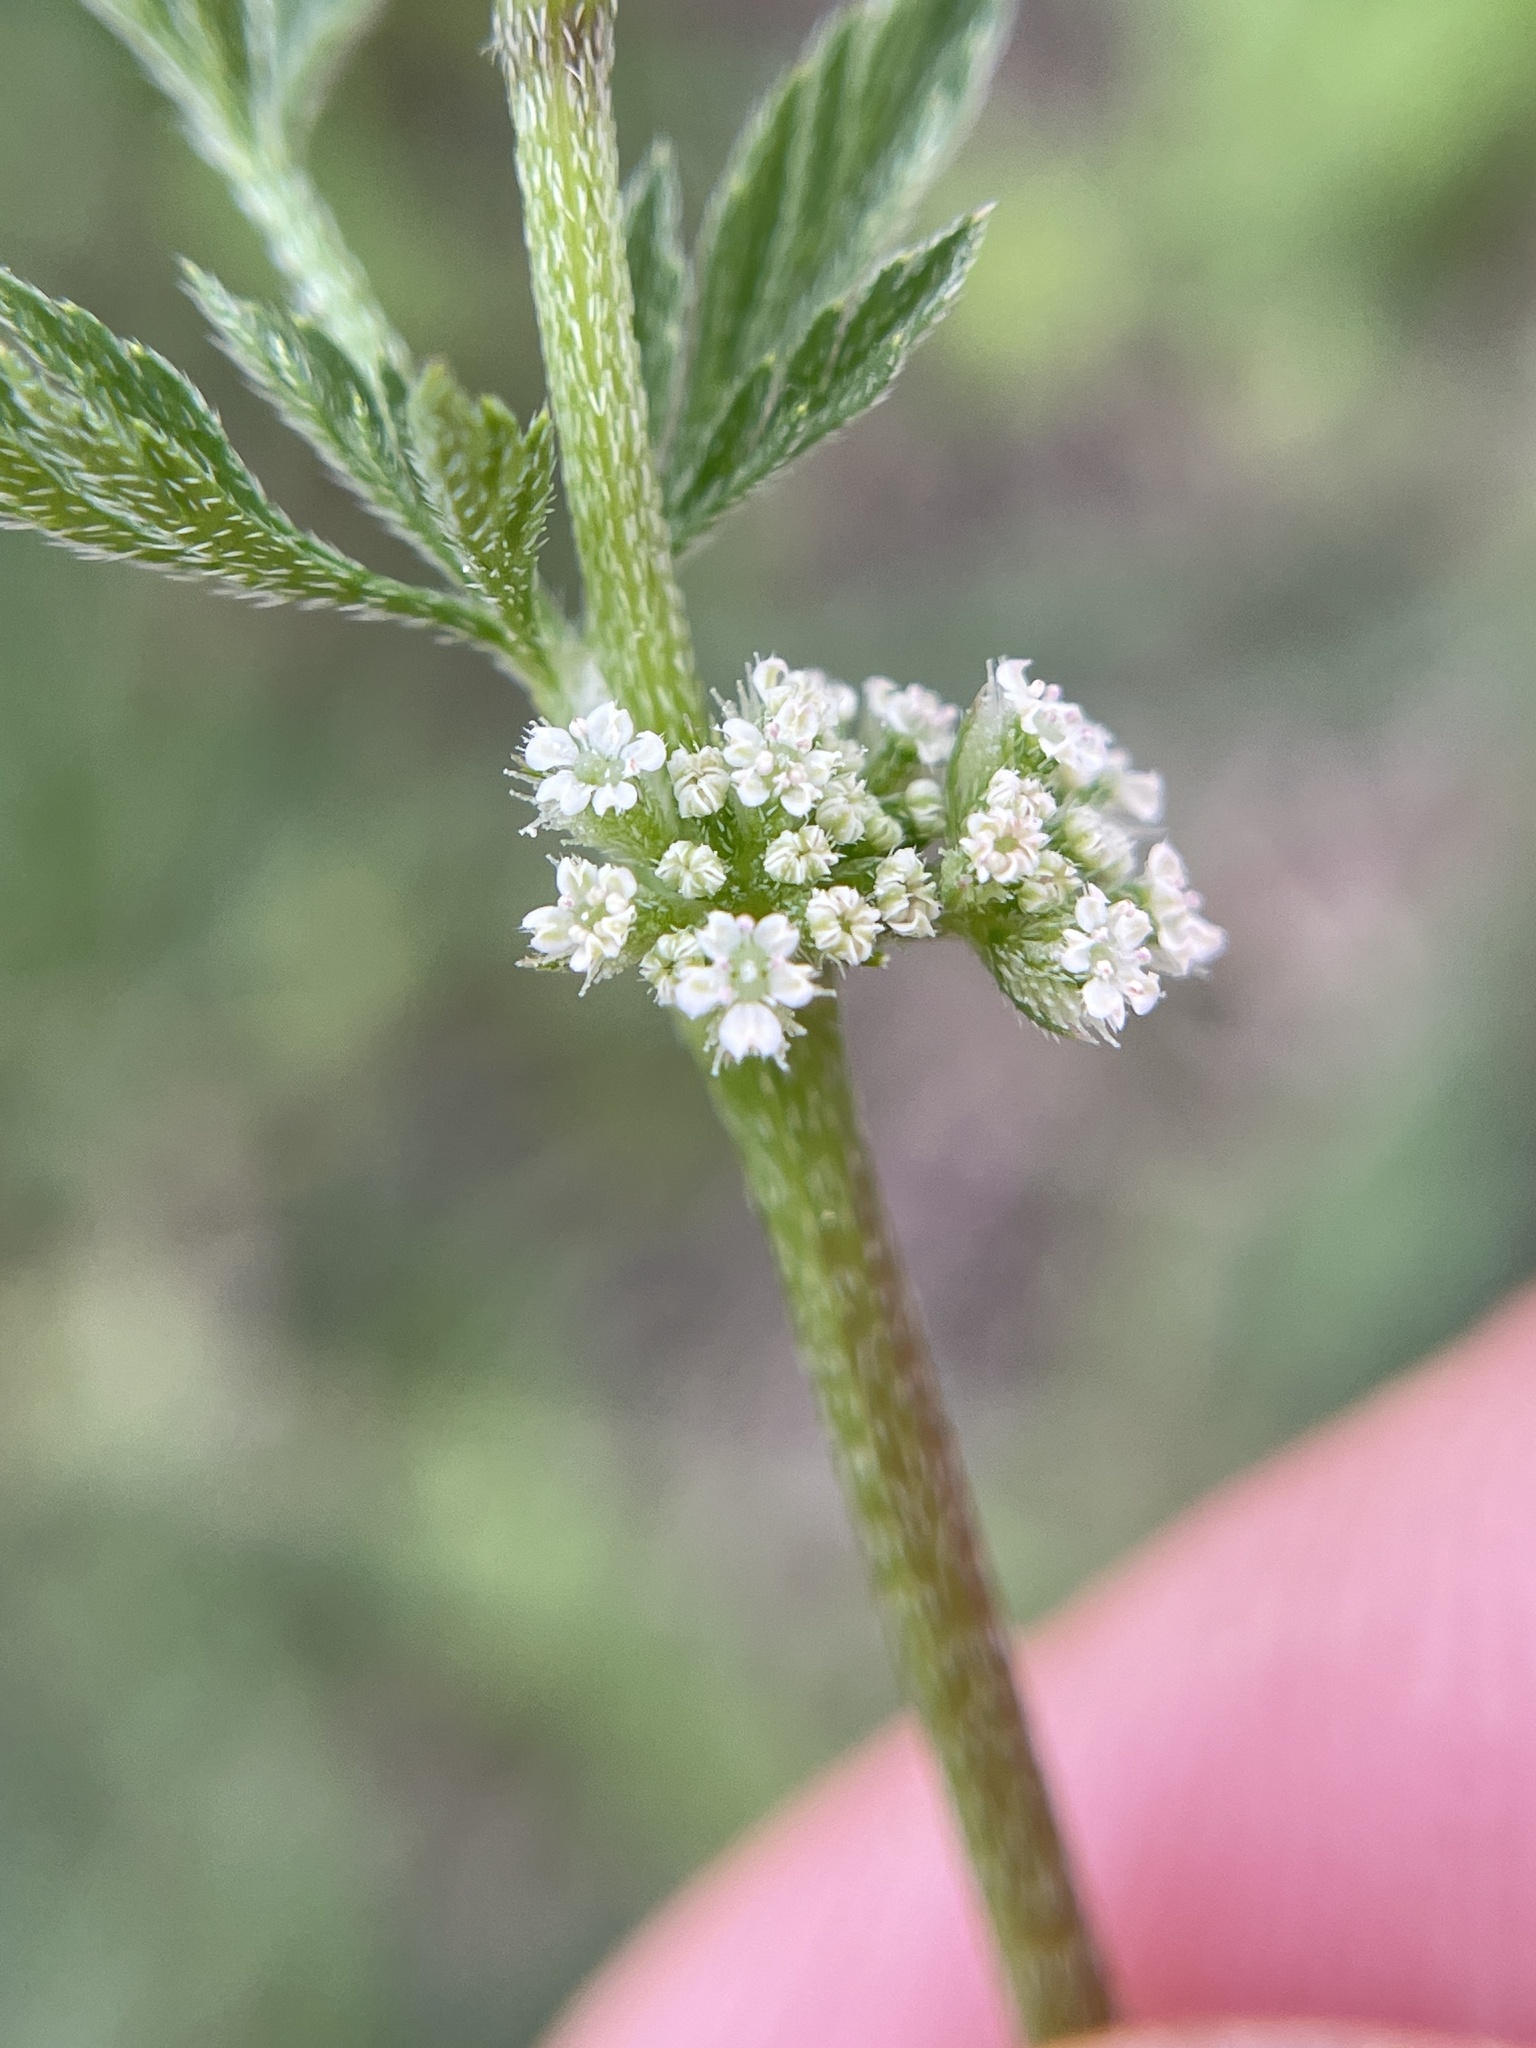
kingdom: Plantae
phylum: Tracheophyta
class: Magnoliopsida
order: Apiales
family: Apiaceae
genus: Torilis
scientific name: Torilis nodosa
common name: Knotted hedge-parsley
